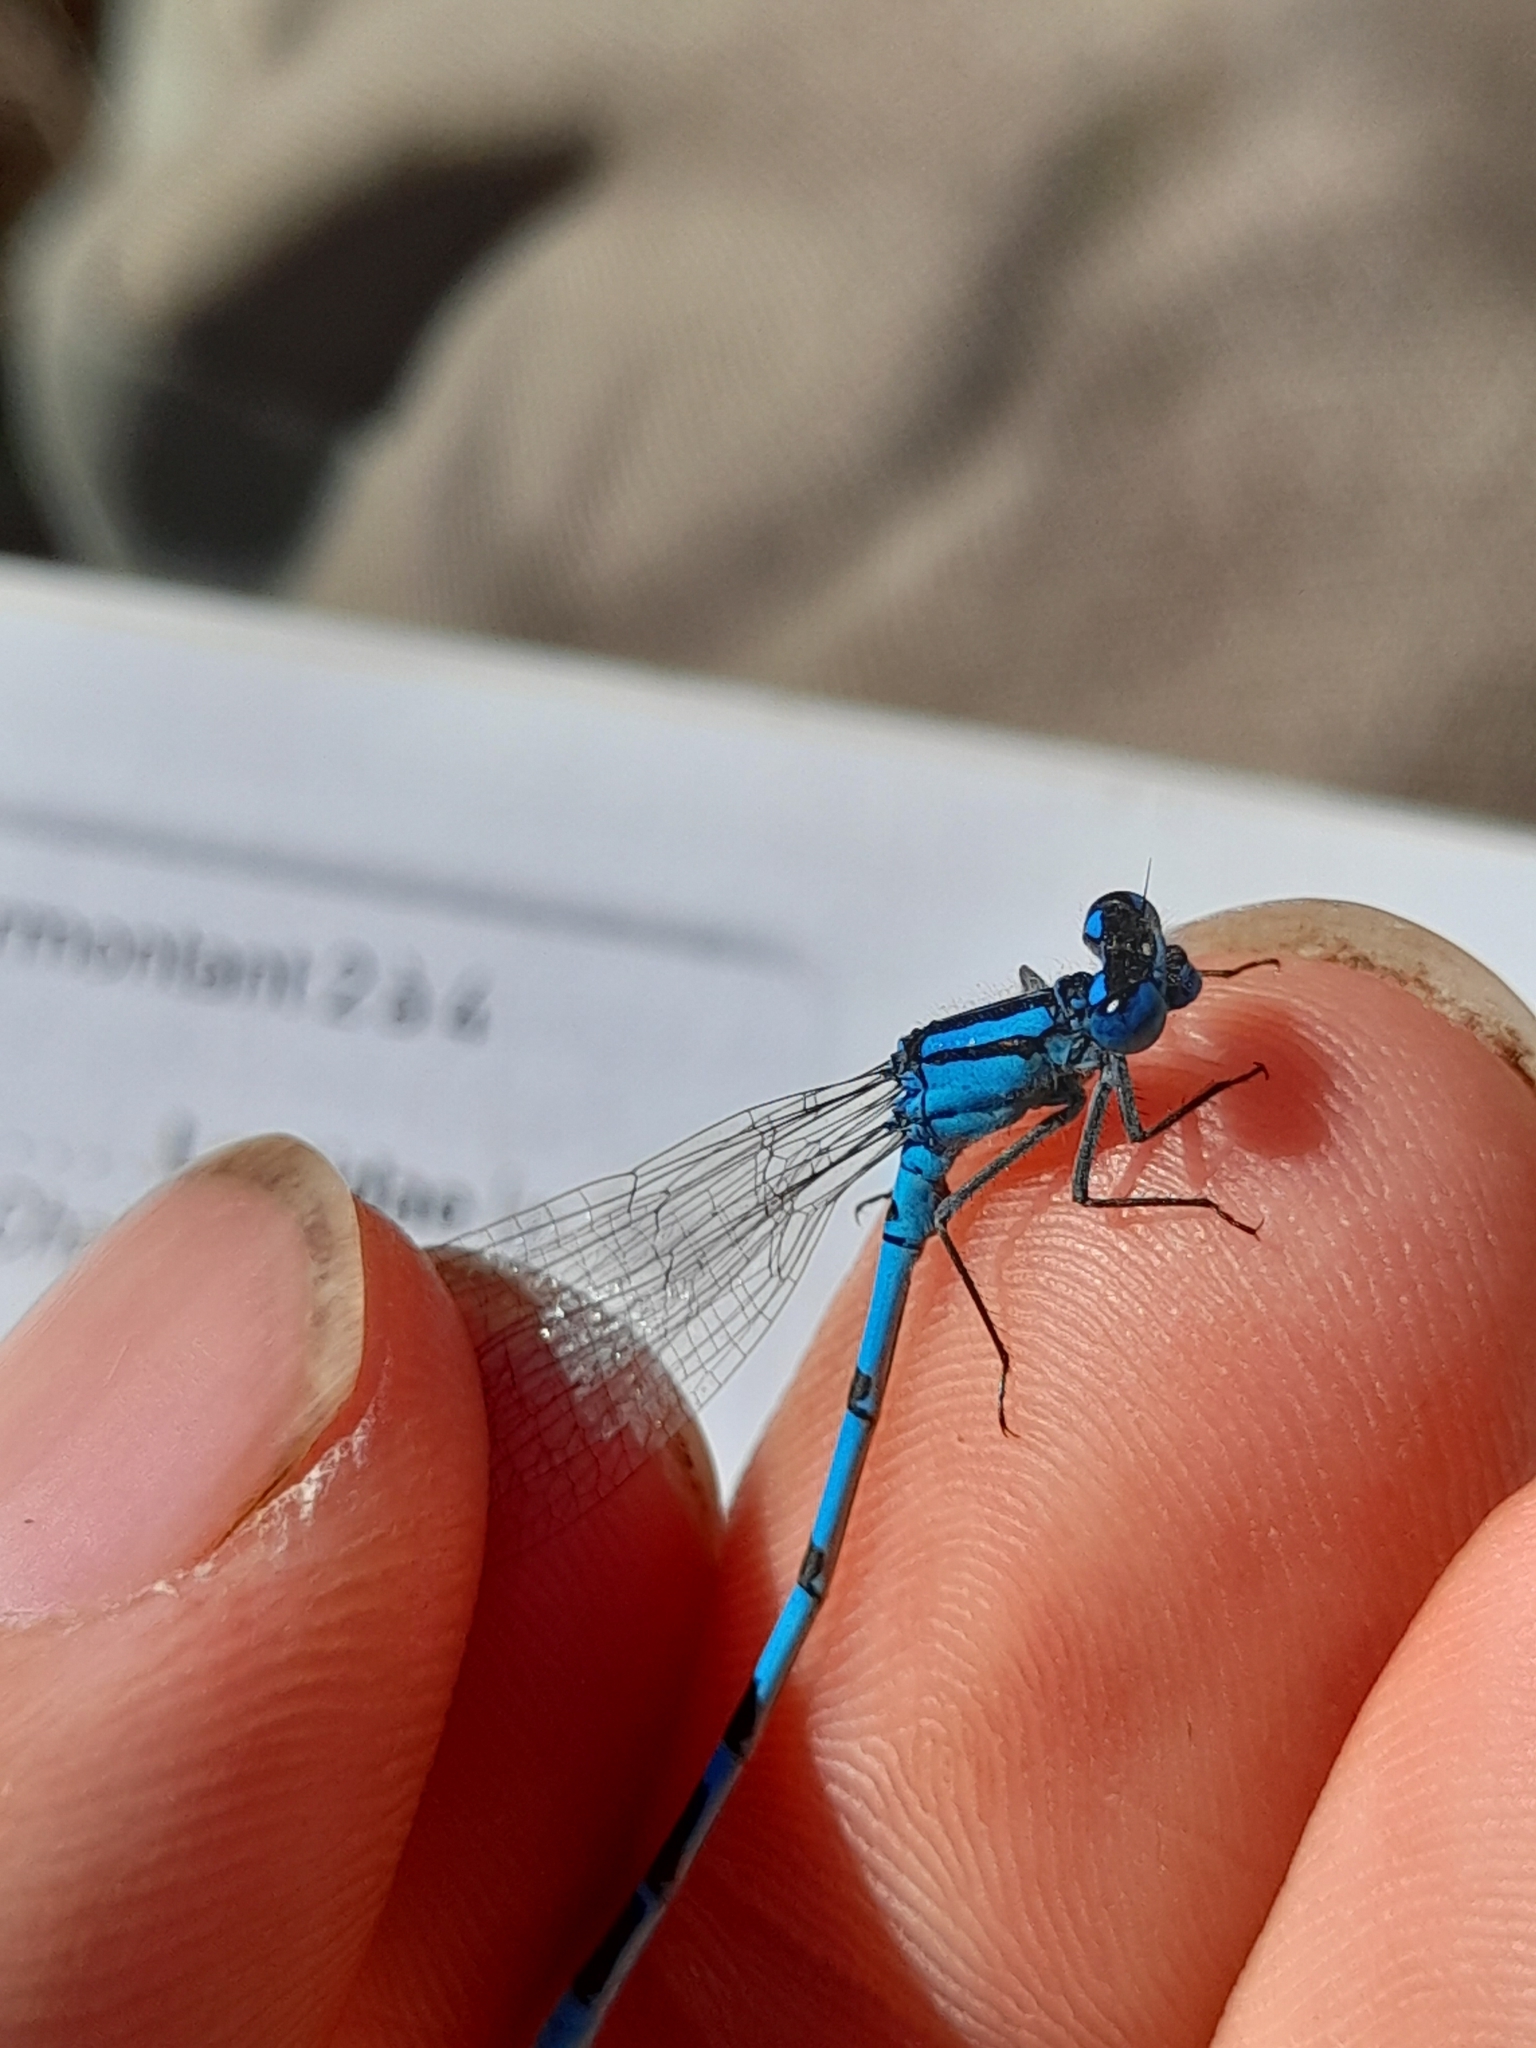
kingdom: Animalia
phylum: Arthropoda
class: Insecta
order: Odonata
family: Coenagrionidae
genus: Enallagma
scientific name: Enallagma cyathigerum
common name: Common blue damselfly
